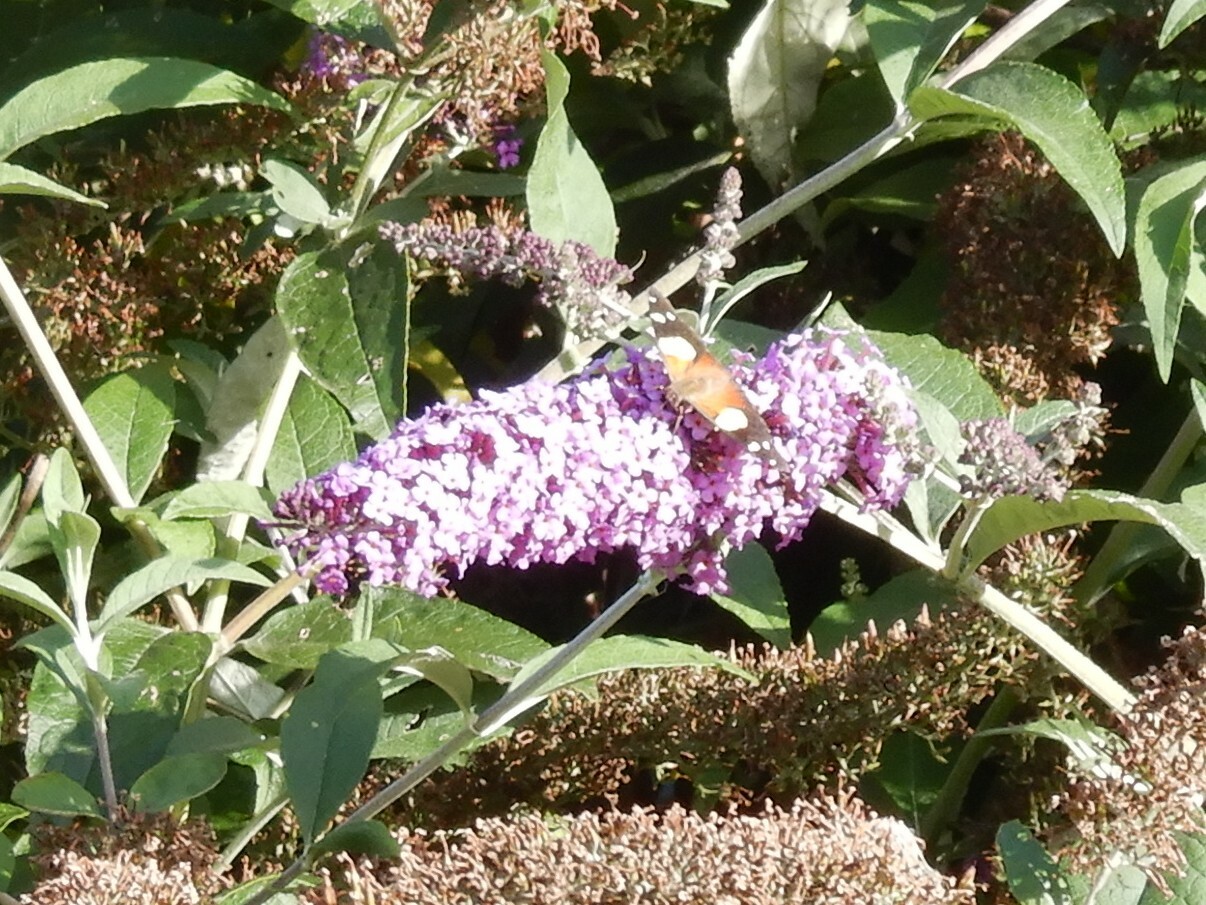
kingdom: Animalia
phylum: Arthropoda
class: Insecta
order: Lepidoptera
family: Nymphalidae
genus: Vanessa
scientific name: Vanessa itea
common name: Yellow admiral
